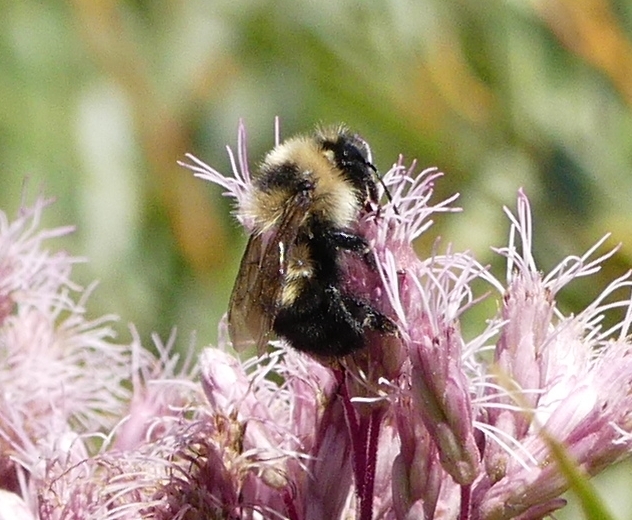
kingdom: Animalia
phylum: Arthropoda
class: Insecta
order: Hymenoptera
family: Apidae
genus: Bombus
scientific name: Bombus rufocinctus
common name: Red-belted bumble bee
